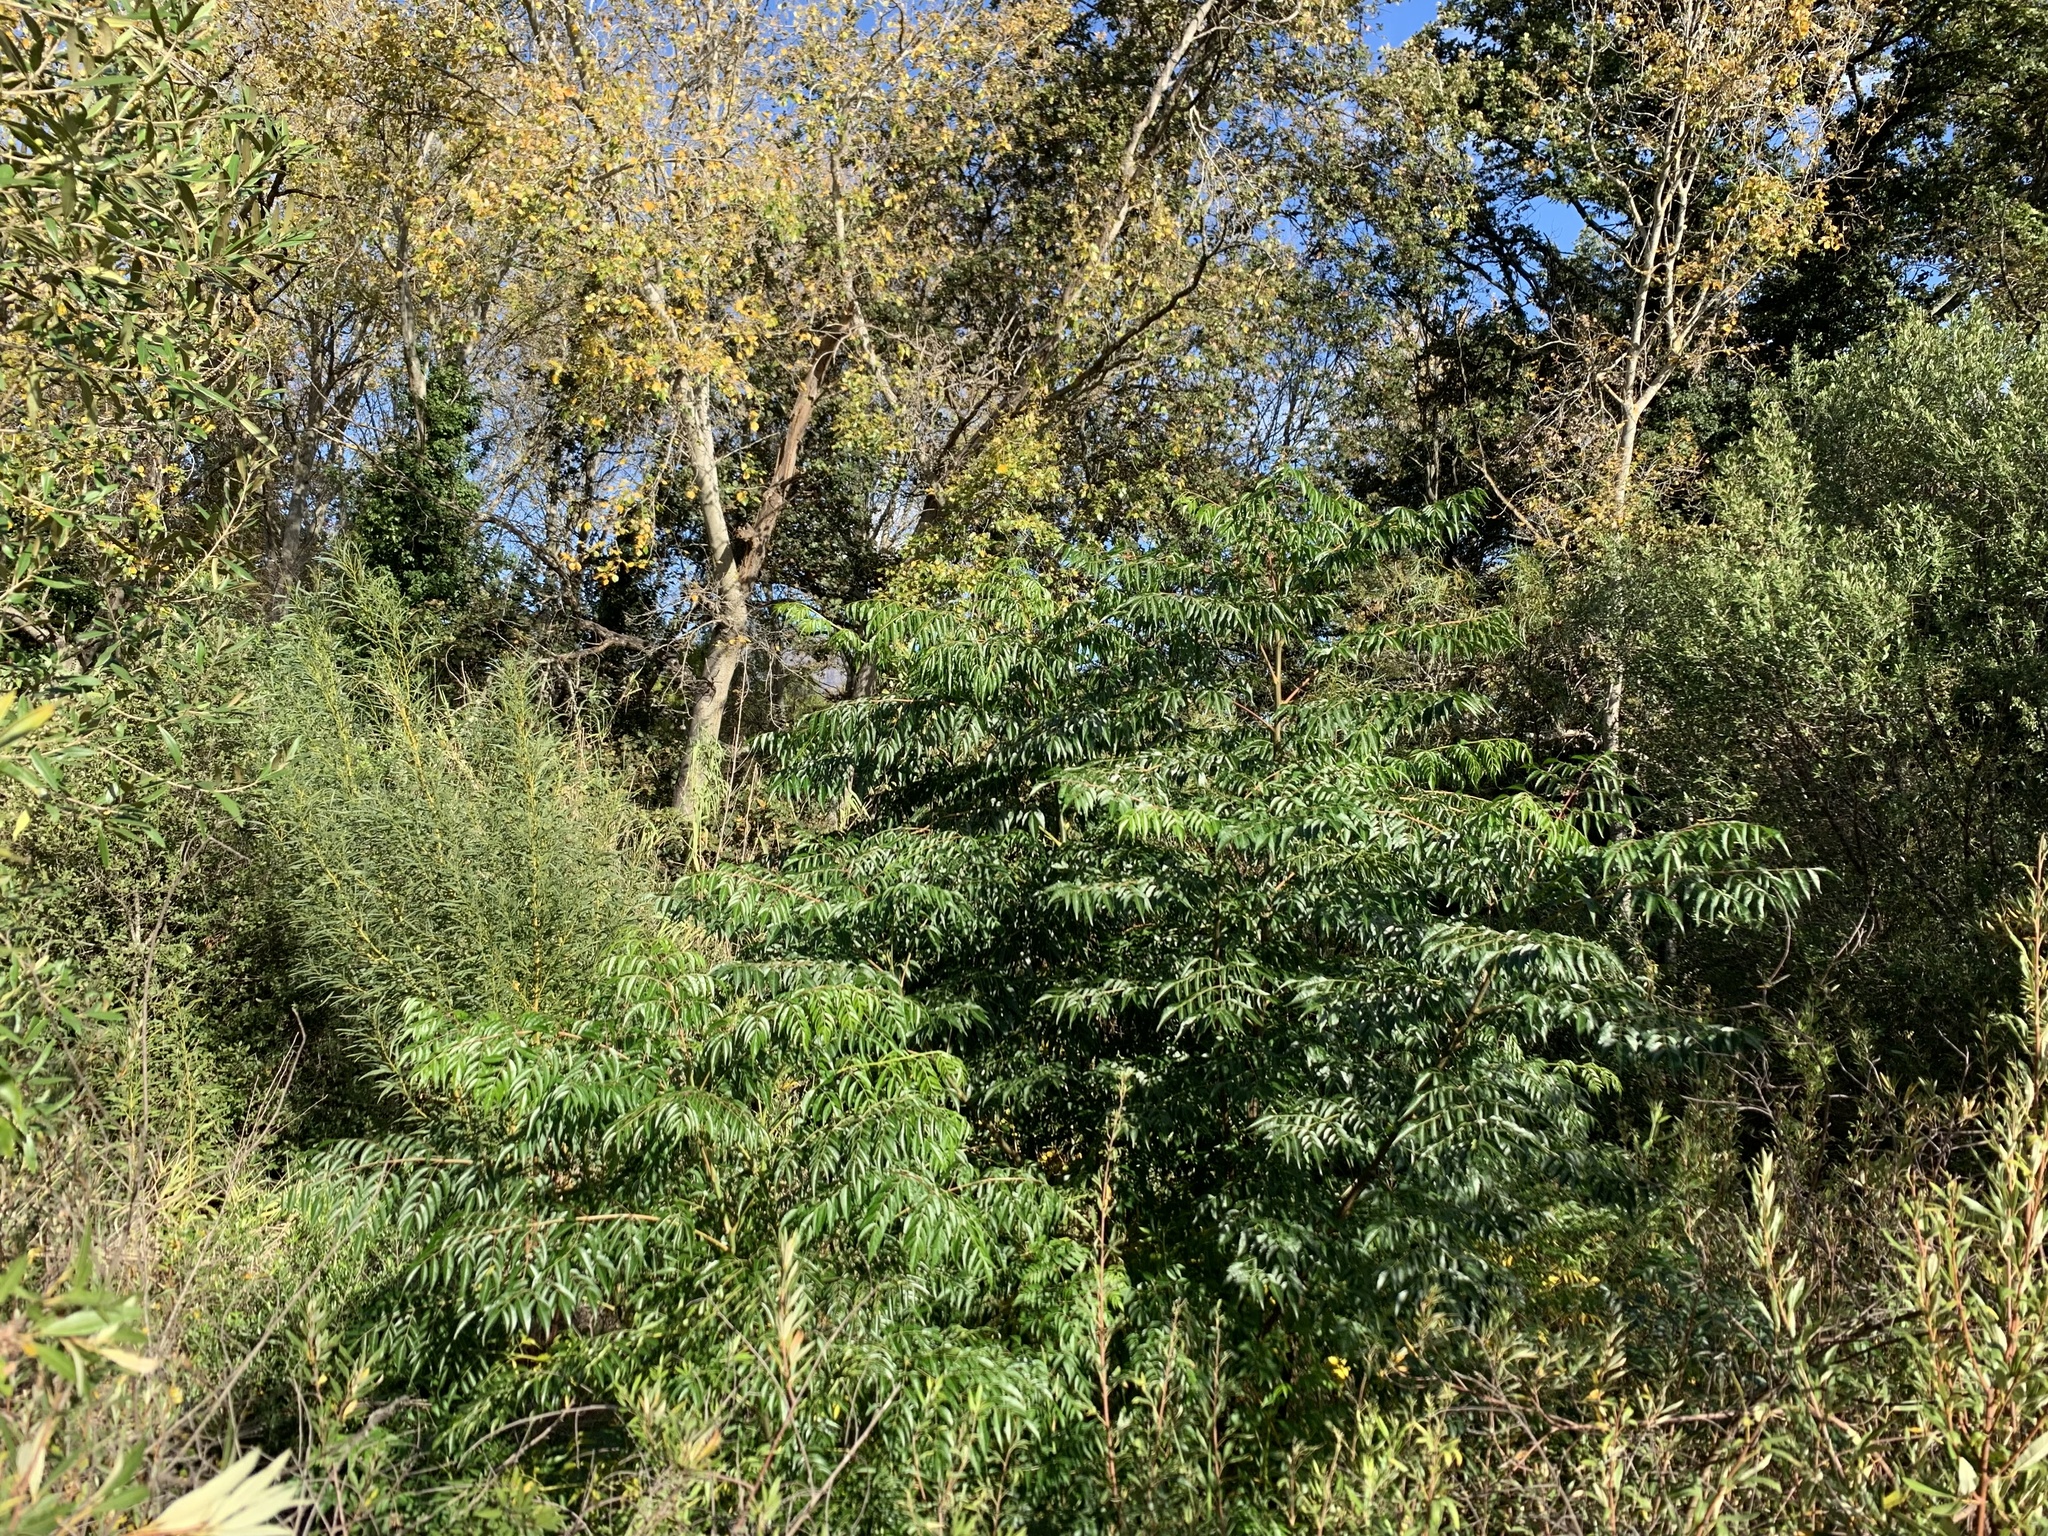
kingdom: Plantae
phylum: Tracheophyta
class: Magnoliopsida
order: Sapindales
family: Meliaceae
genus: Melia
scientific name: Melia azedarach
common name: Chinaberrytree
